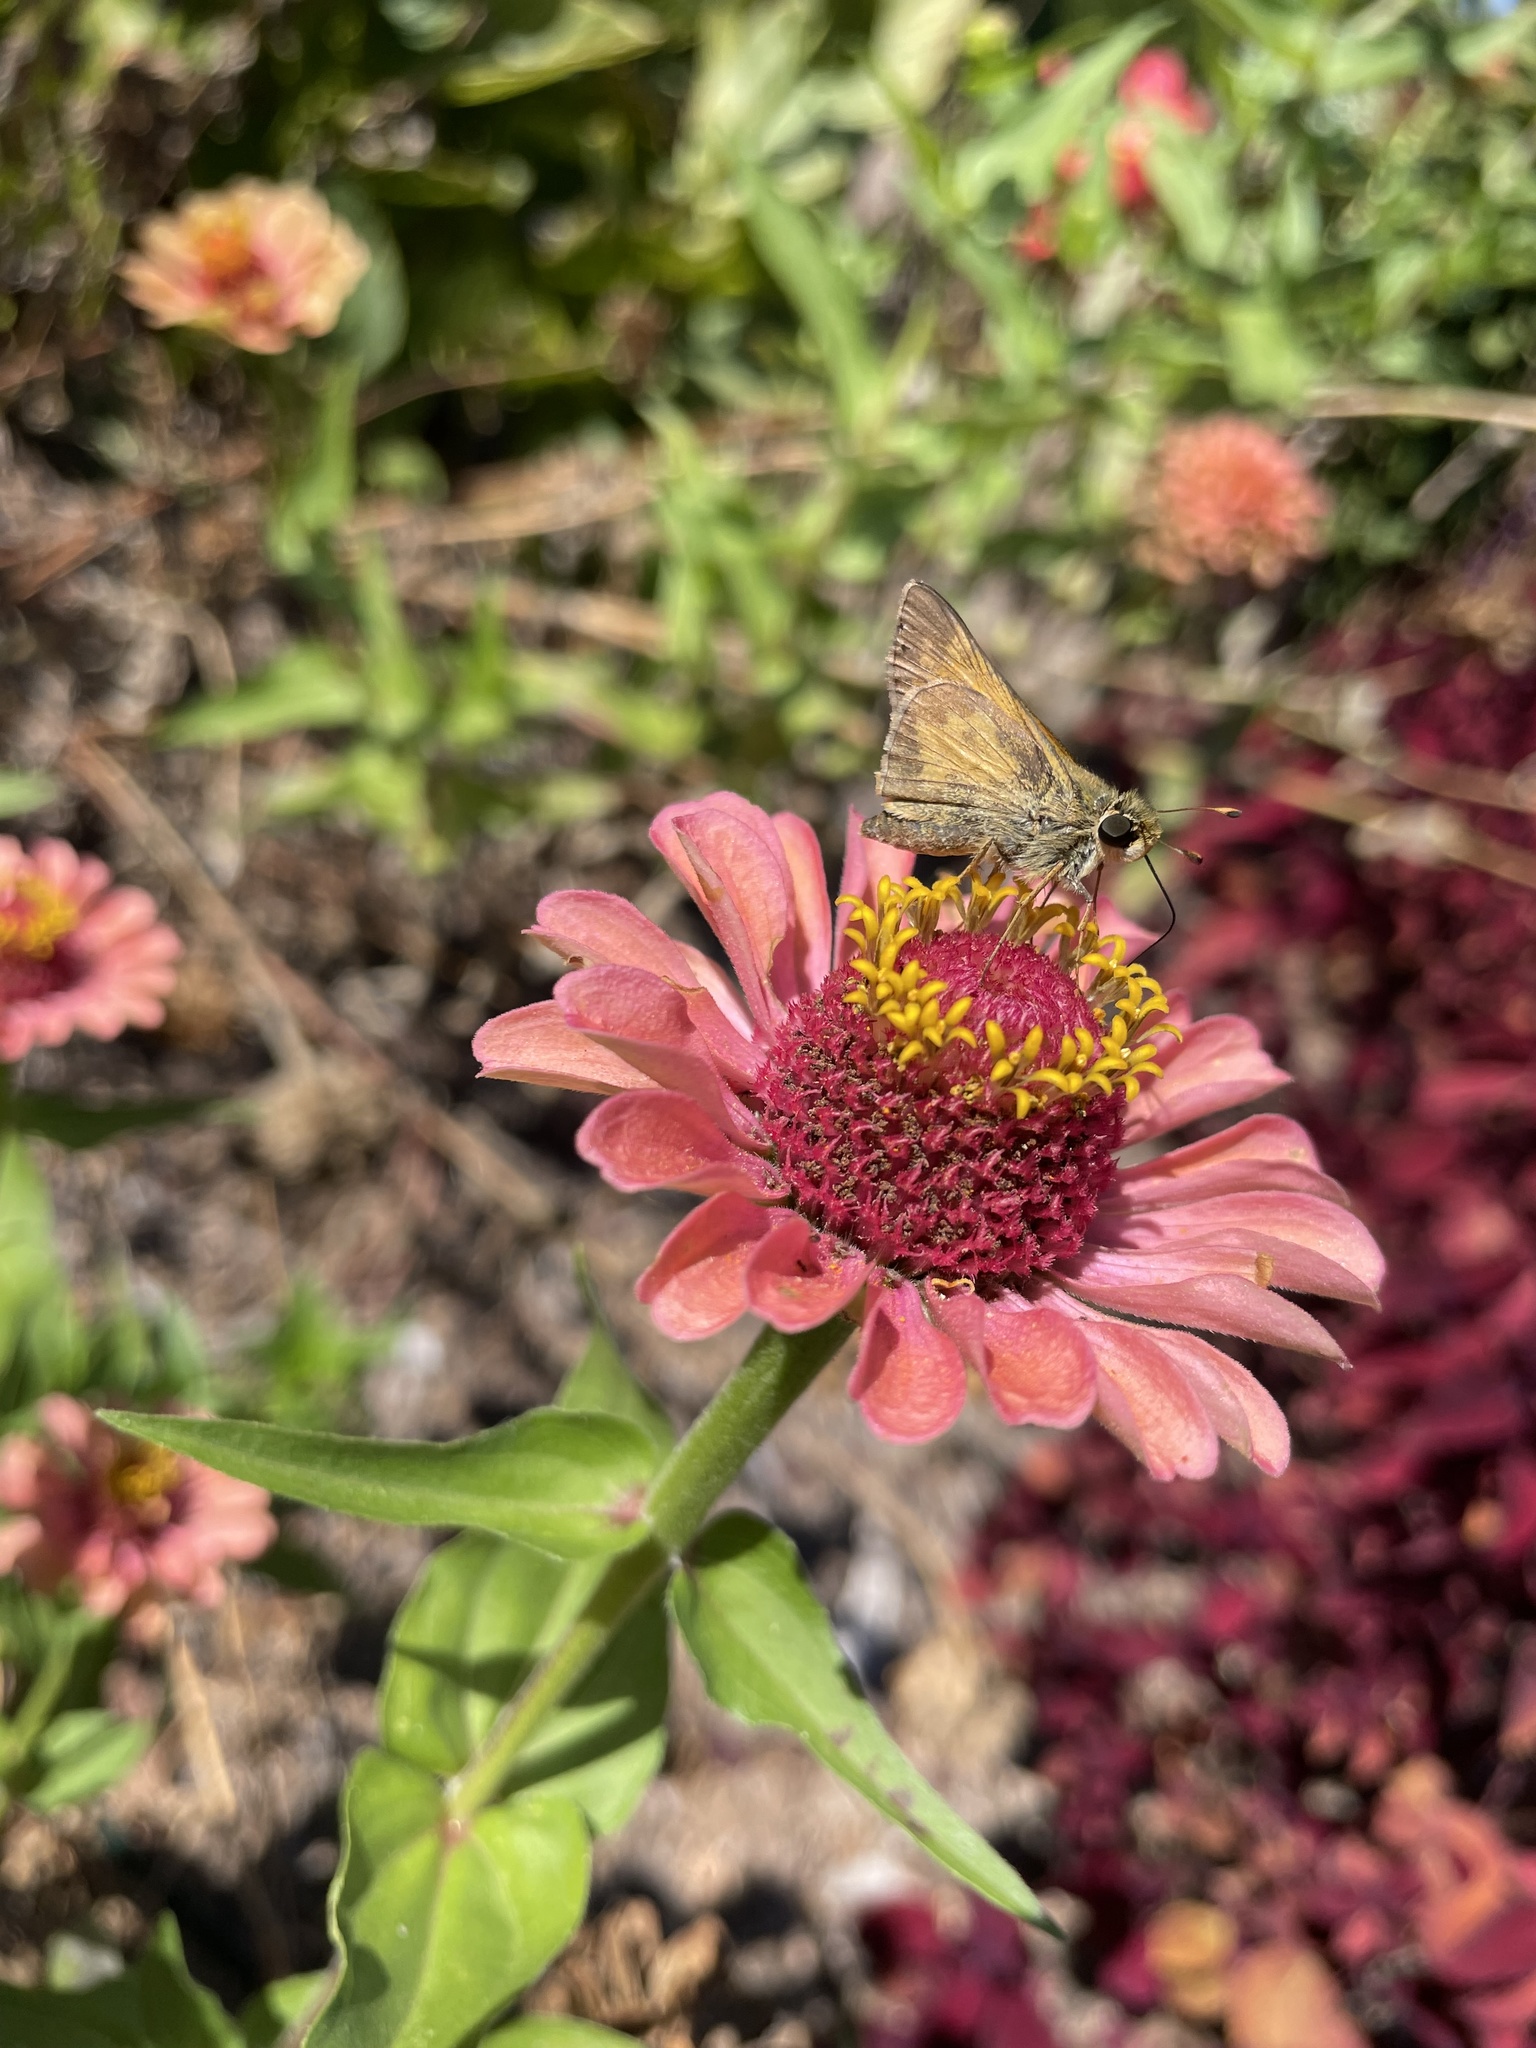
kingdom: Animalia
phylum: Arthropoda
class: Insecta
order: Lepidoptera
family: Hesperiidae
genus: Atalopedes
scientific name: Atalopedes
